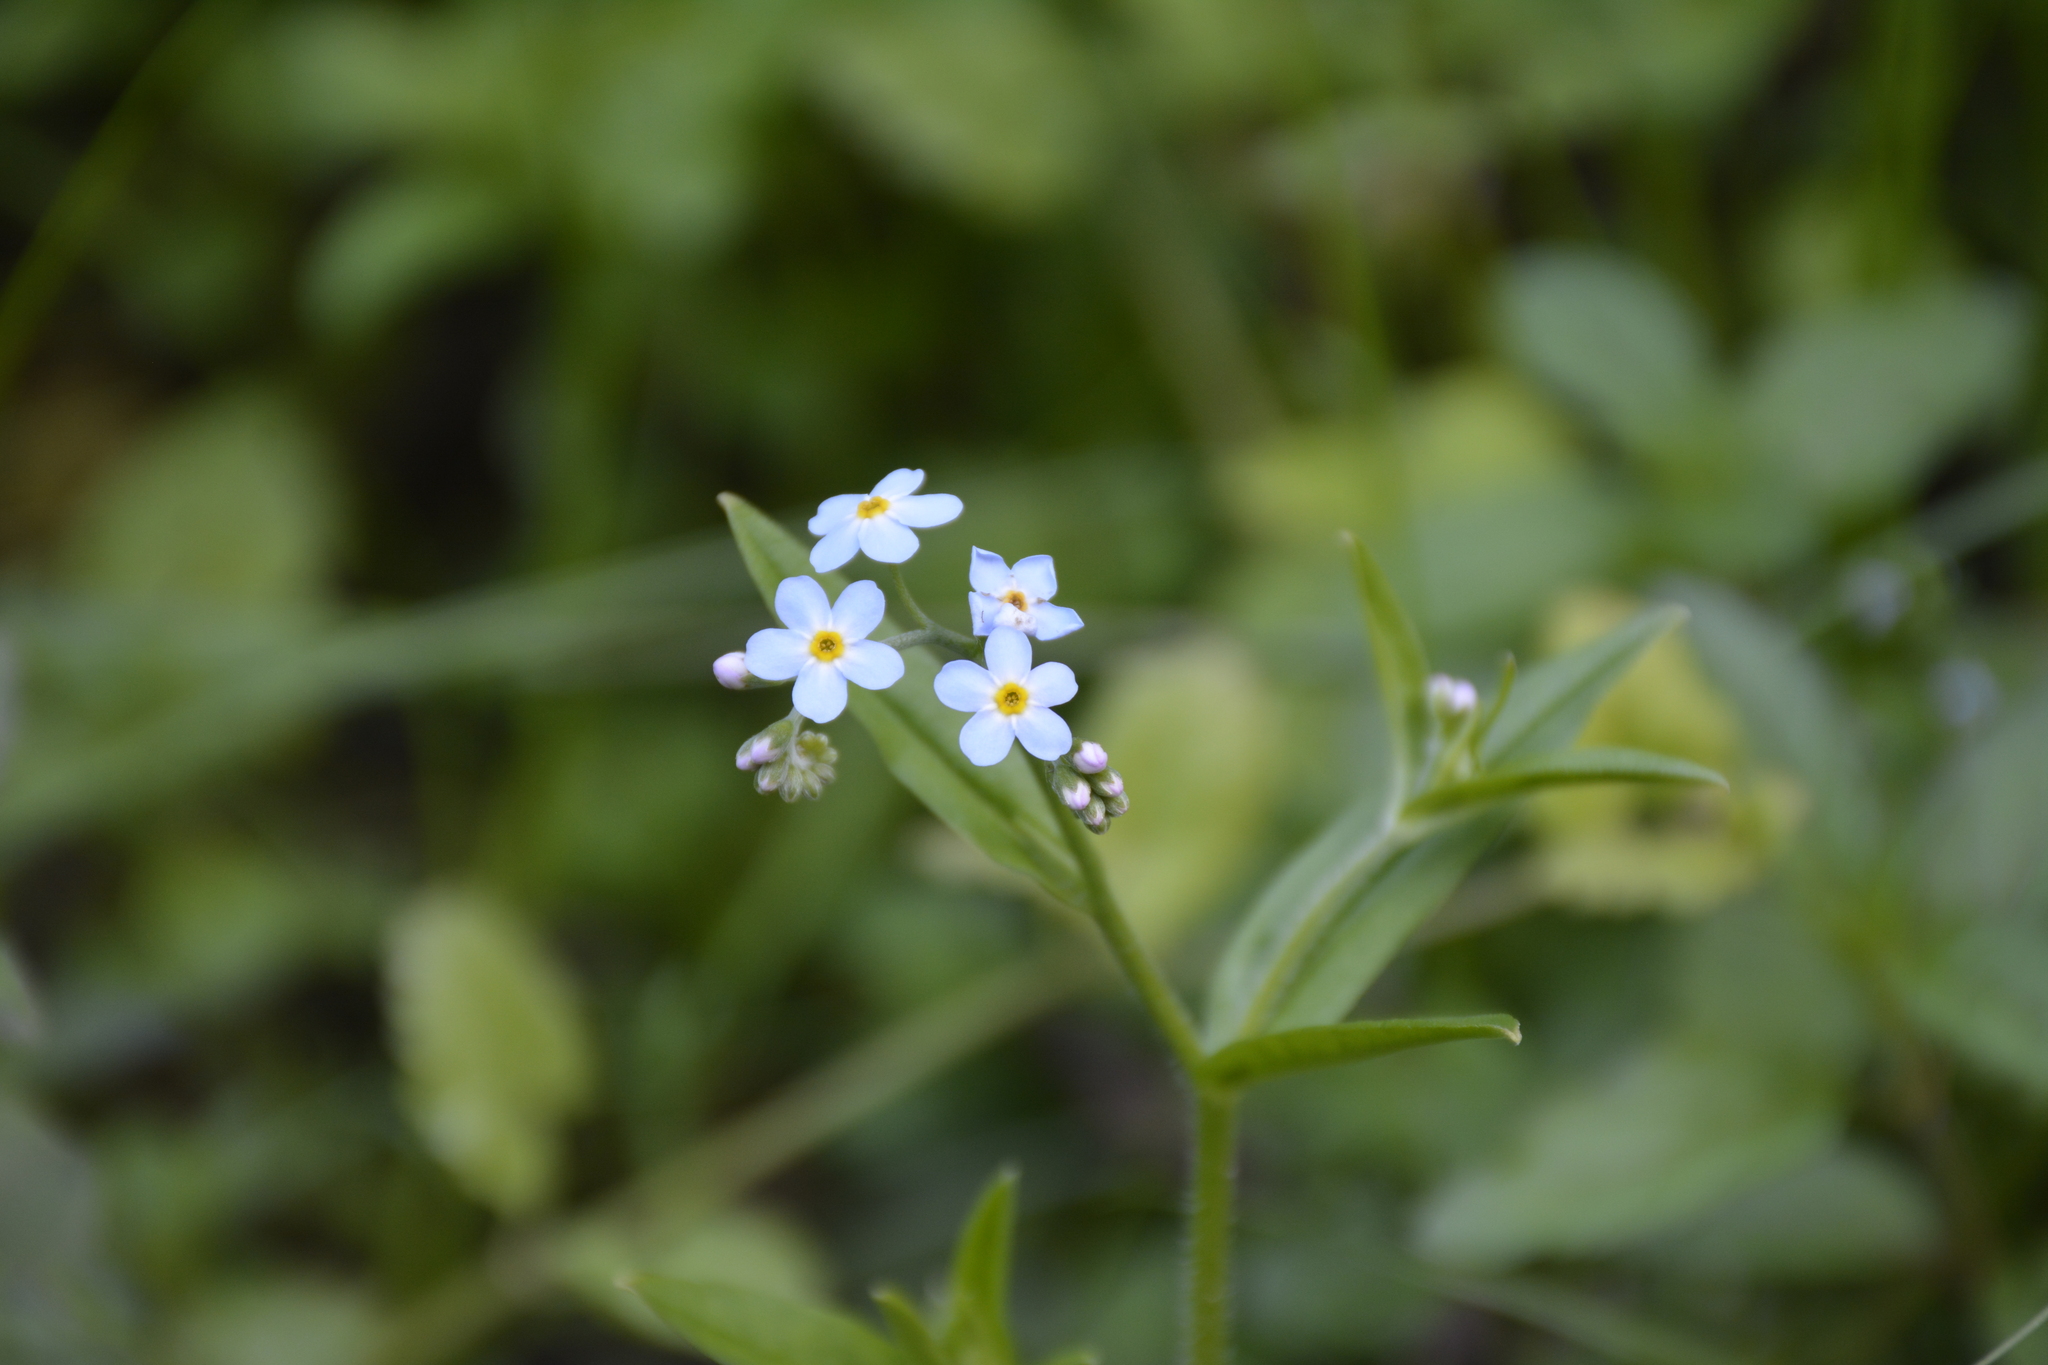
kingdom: Plantae
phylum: Tracheophyta
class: Magnoliopsida
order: Boraginales
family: Boraginaceae
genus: Myosotis
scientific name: Myosotis scorpioides
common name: Water forget-me-not
